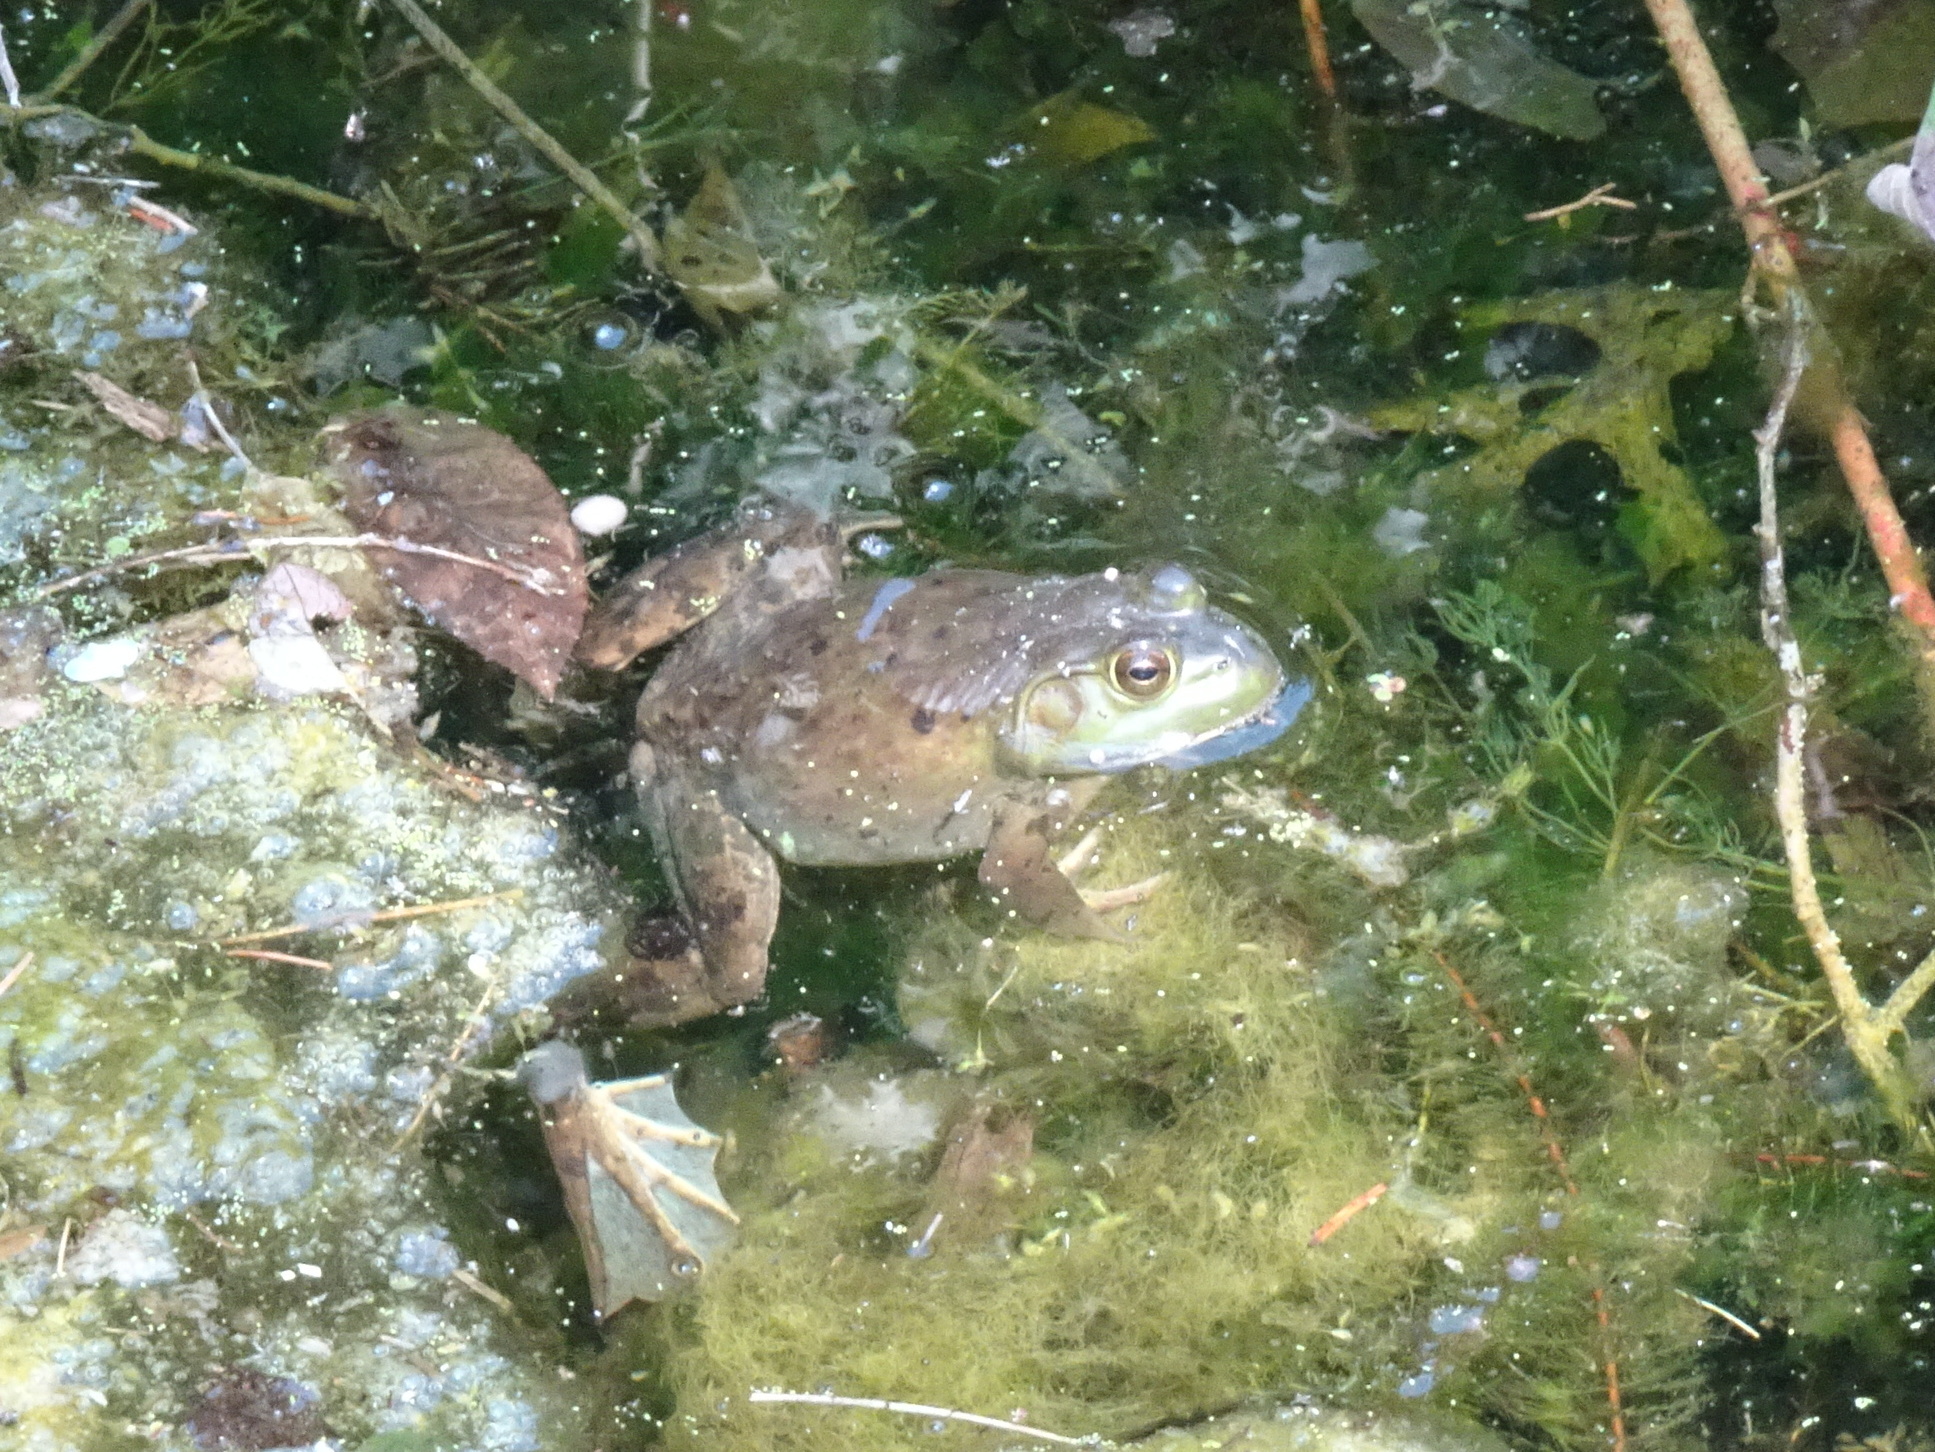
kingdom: Animalia
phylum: Chordata
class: Amphibia
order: Anura
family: Ranidae
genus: Lithobates
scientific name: Lithobates catesbeianus
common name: American bullfrog
